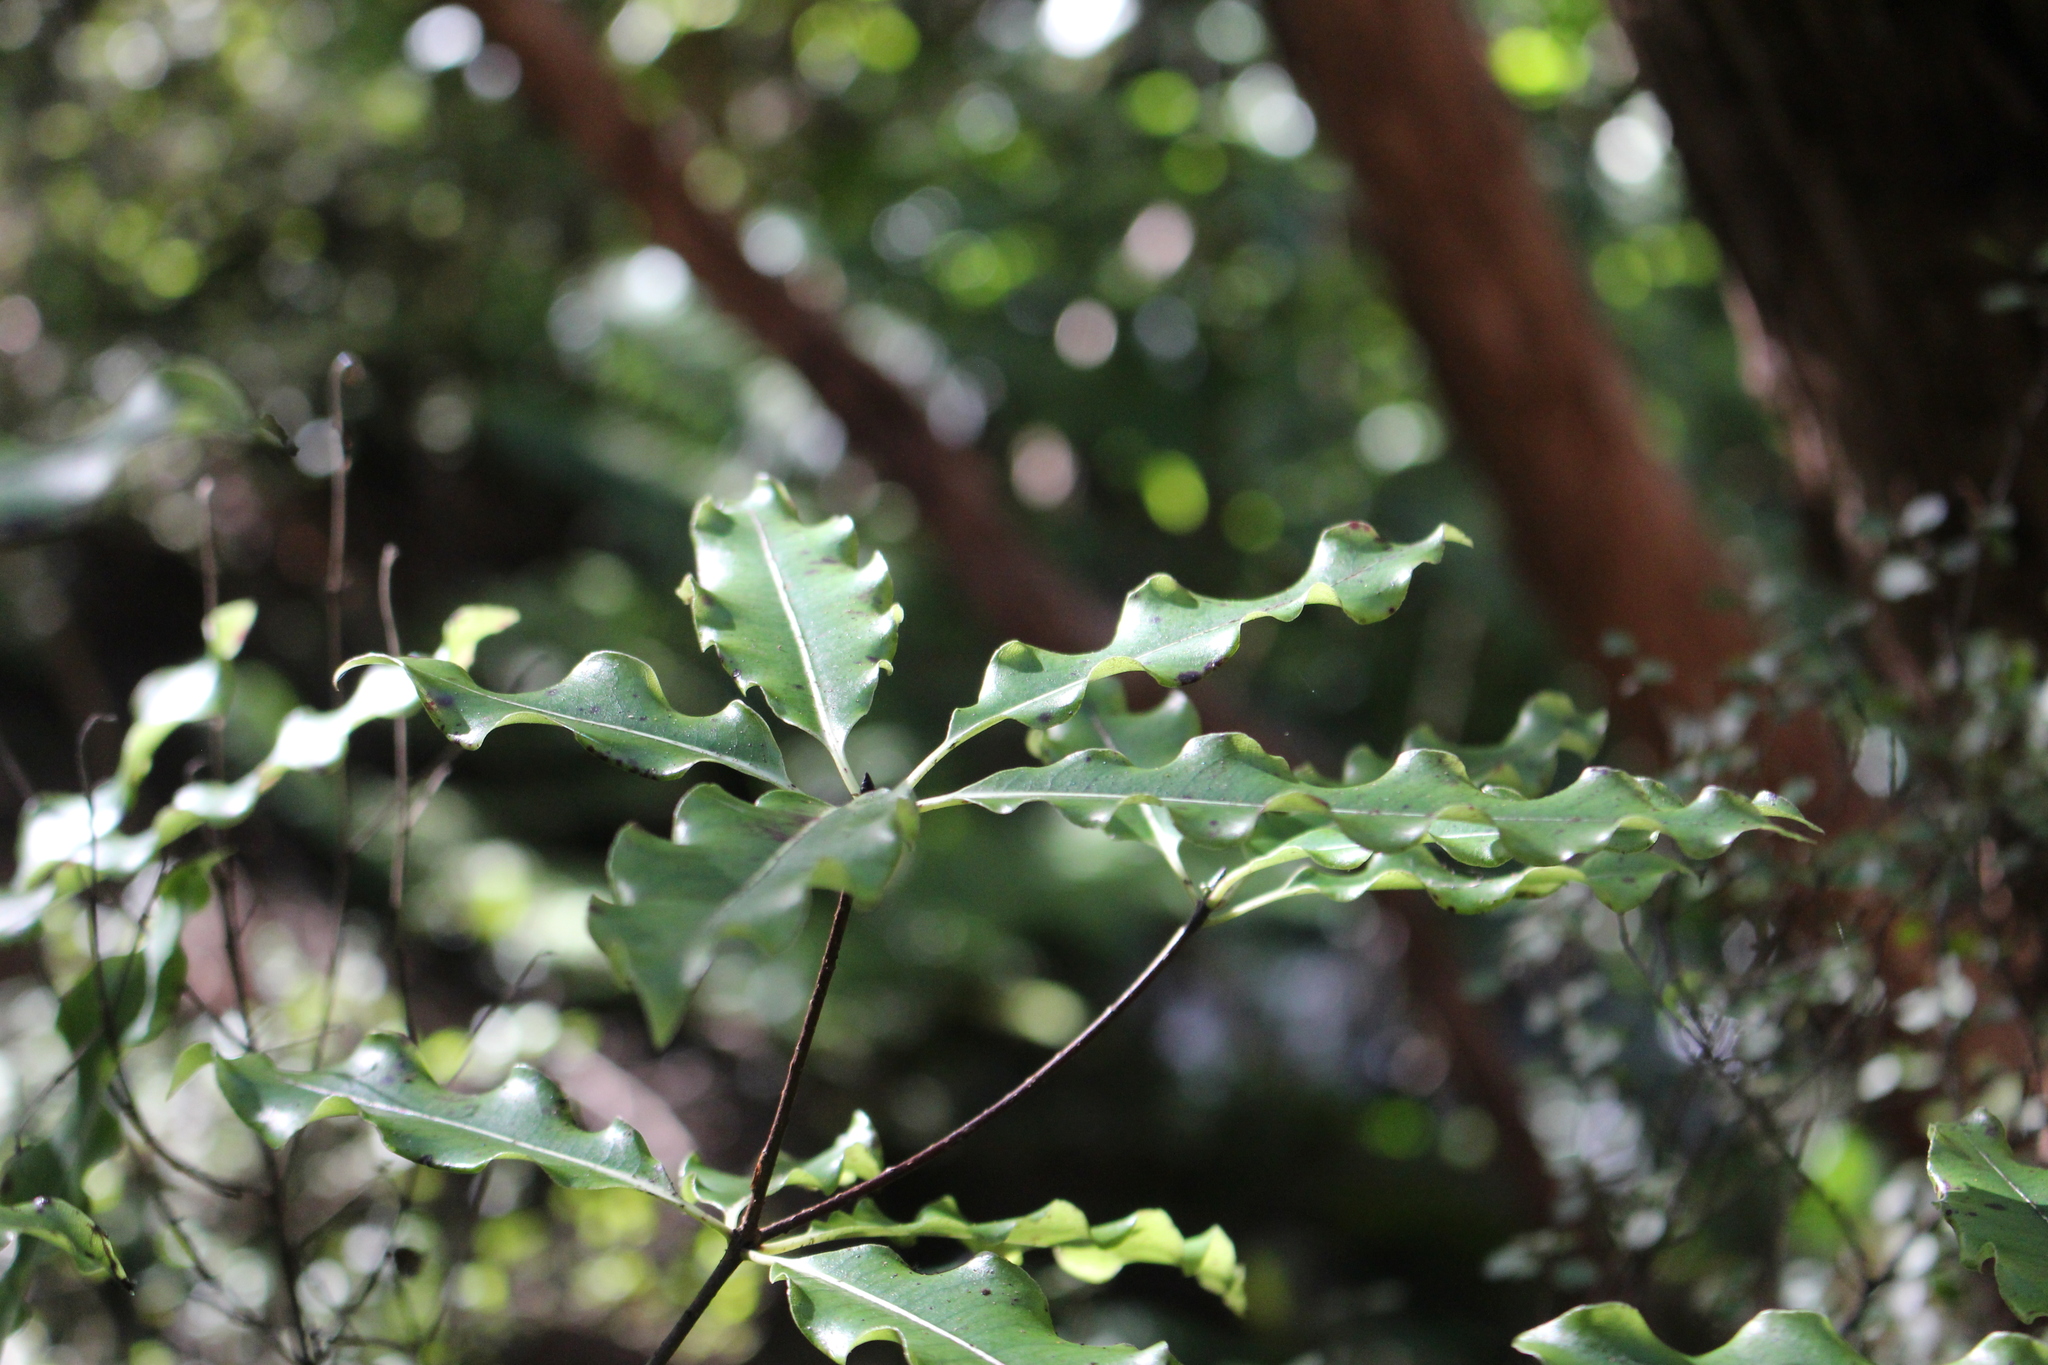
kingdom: Plantae
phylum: Tracheophyta
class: Magnoliopsida
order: Apiales
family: Pittosporaceae
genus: Pittosporum
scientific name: Pittosporum eugenioides
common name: Lemonwood
